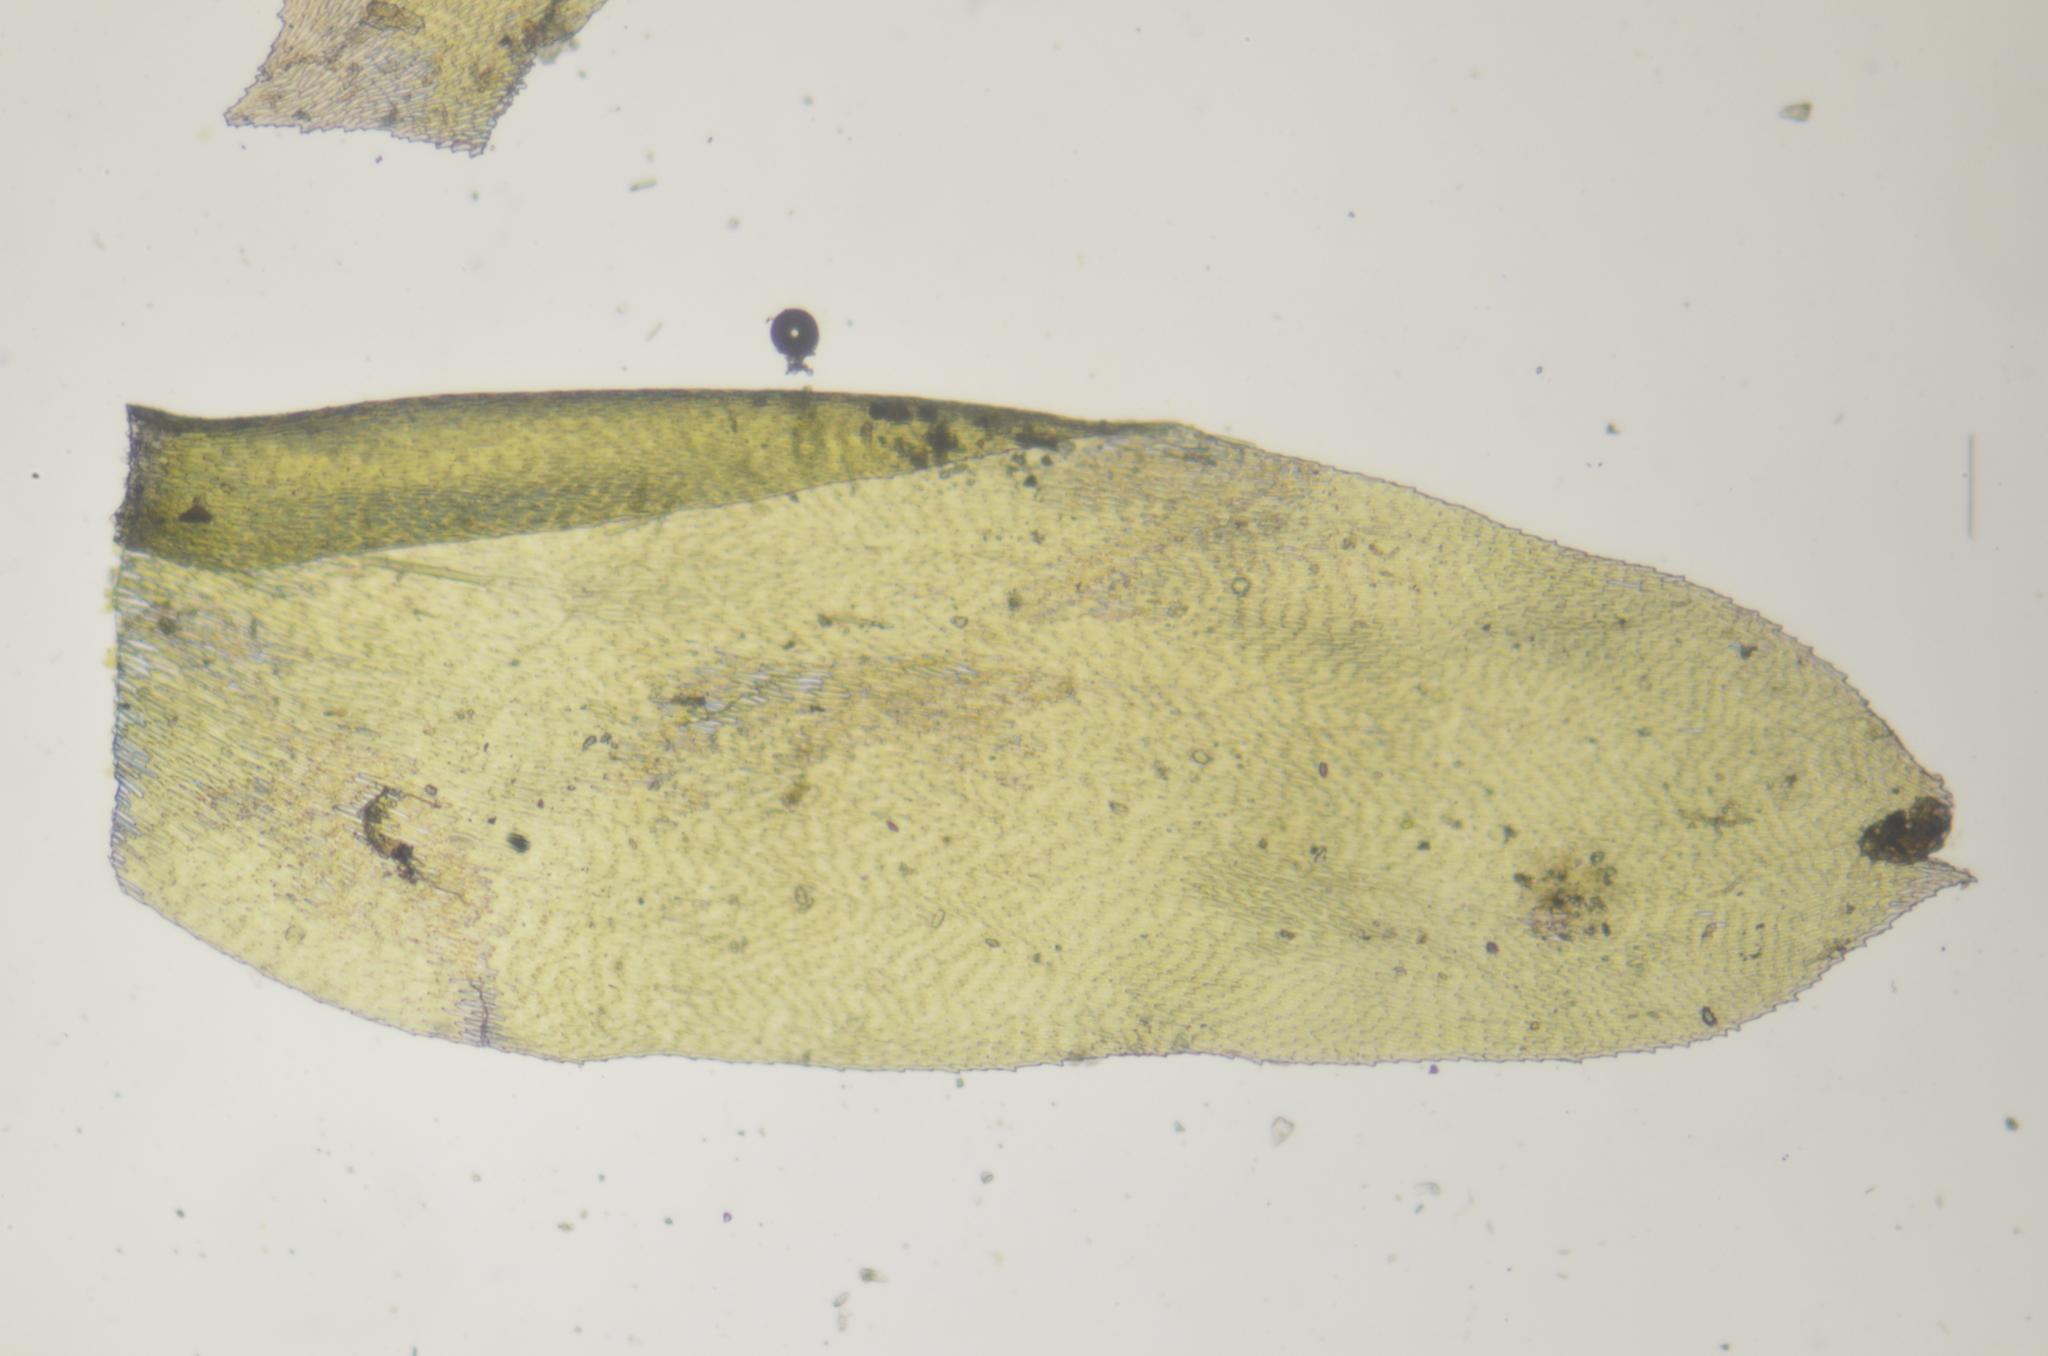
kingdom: Plantae
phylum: Bryophyta
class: Bryopsida
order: Hypnales
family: Neckeraceae
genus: Neckera
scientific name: Neckera pennata
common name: Feathery neckera
